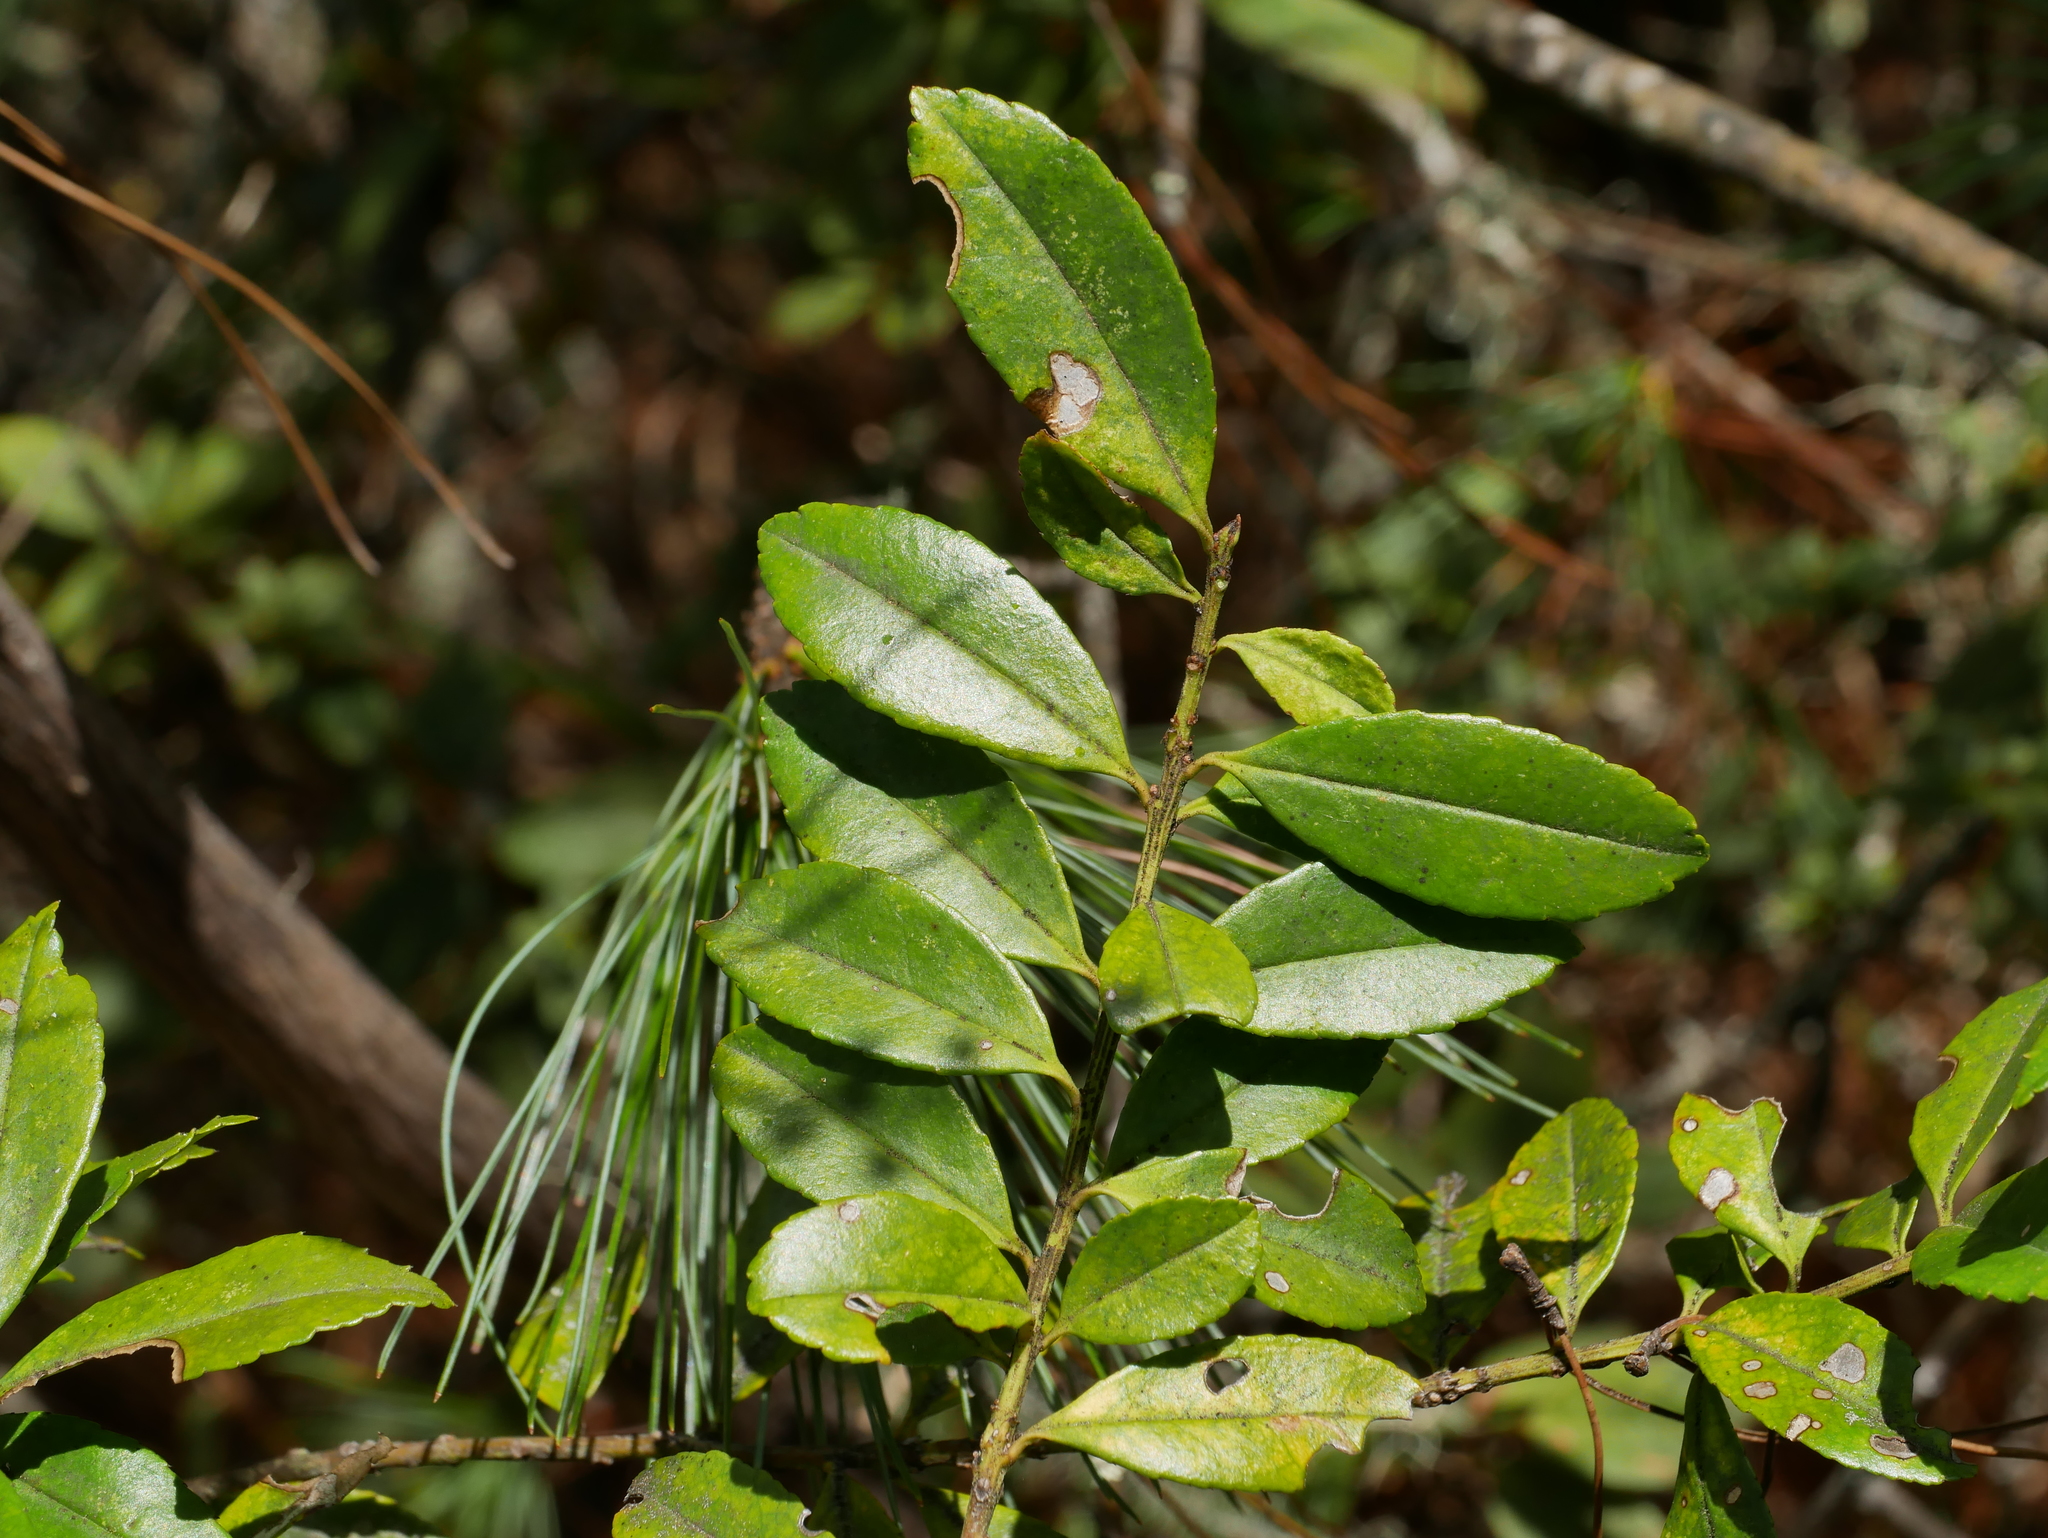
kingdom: Plantae
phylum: Tracheophyta
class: Magnoliopsida
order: Aquifoliales
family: Aquifoliaceae
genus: Ilex
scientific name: Ilex crenata
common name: Japanese holly
